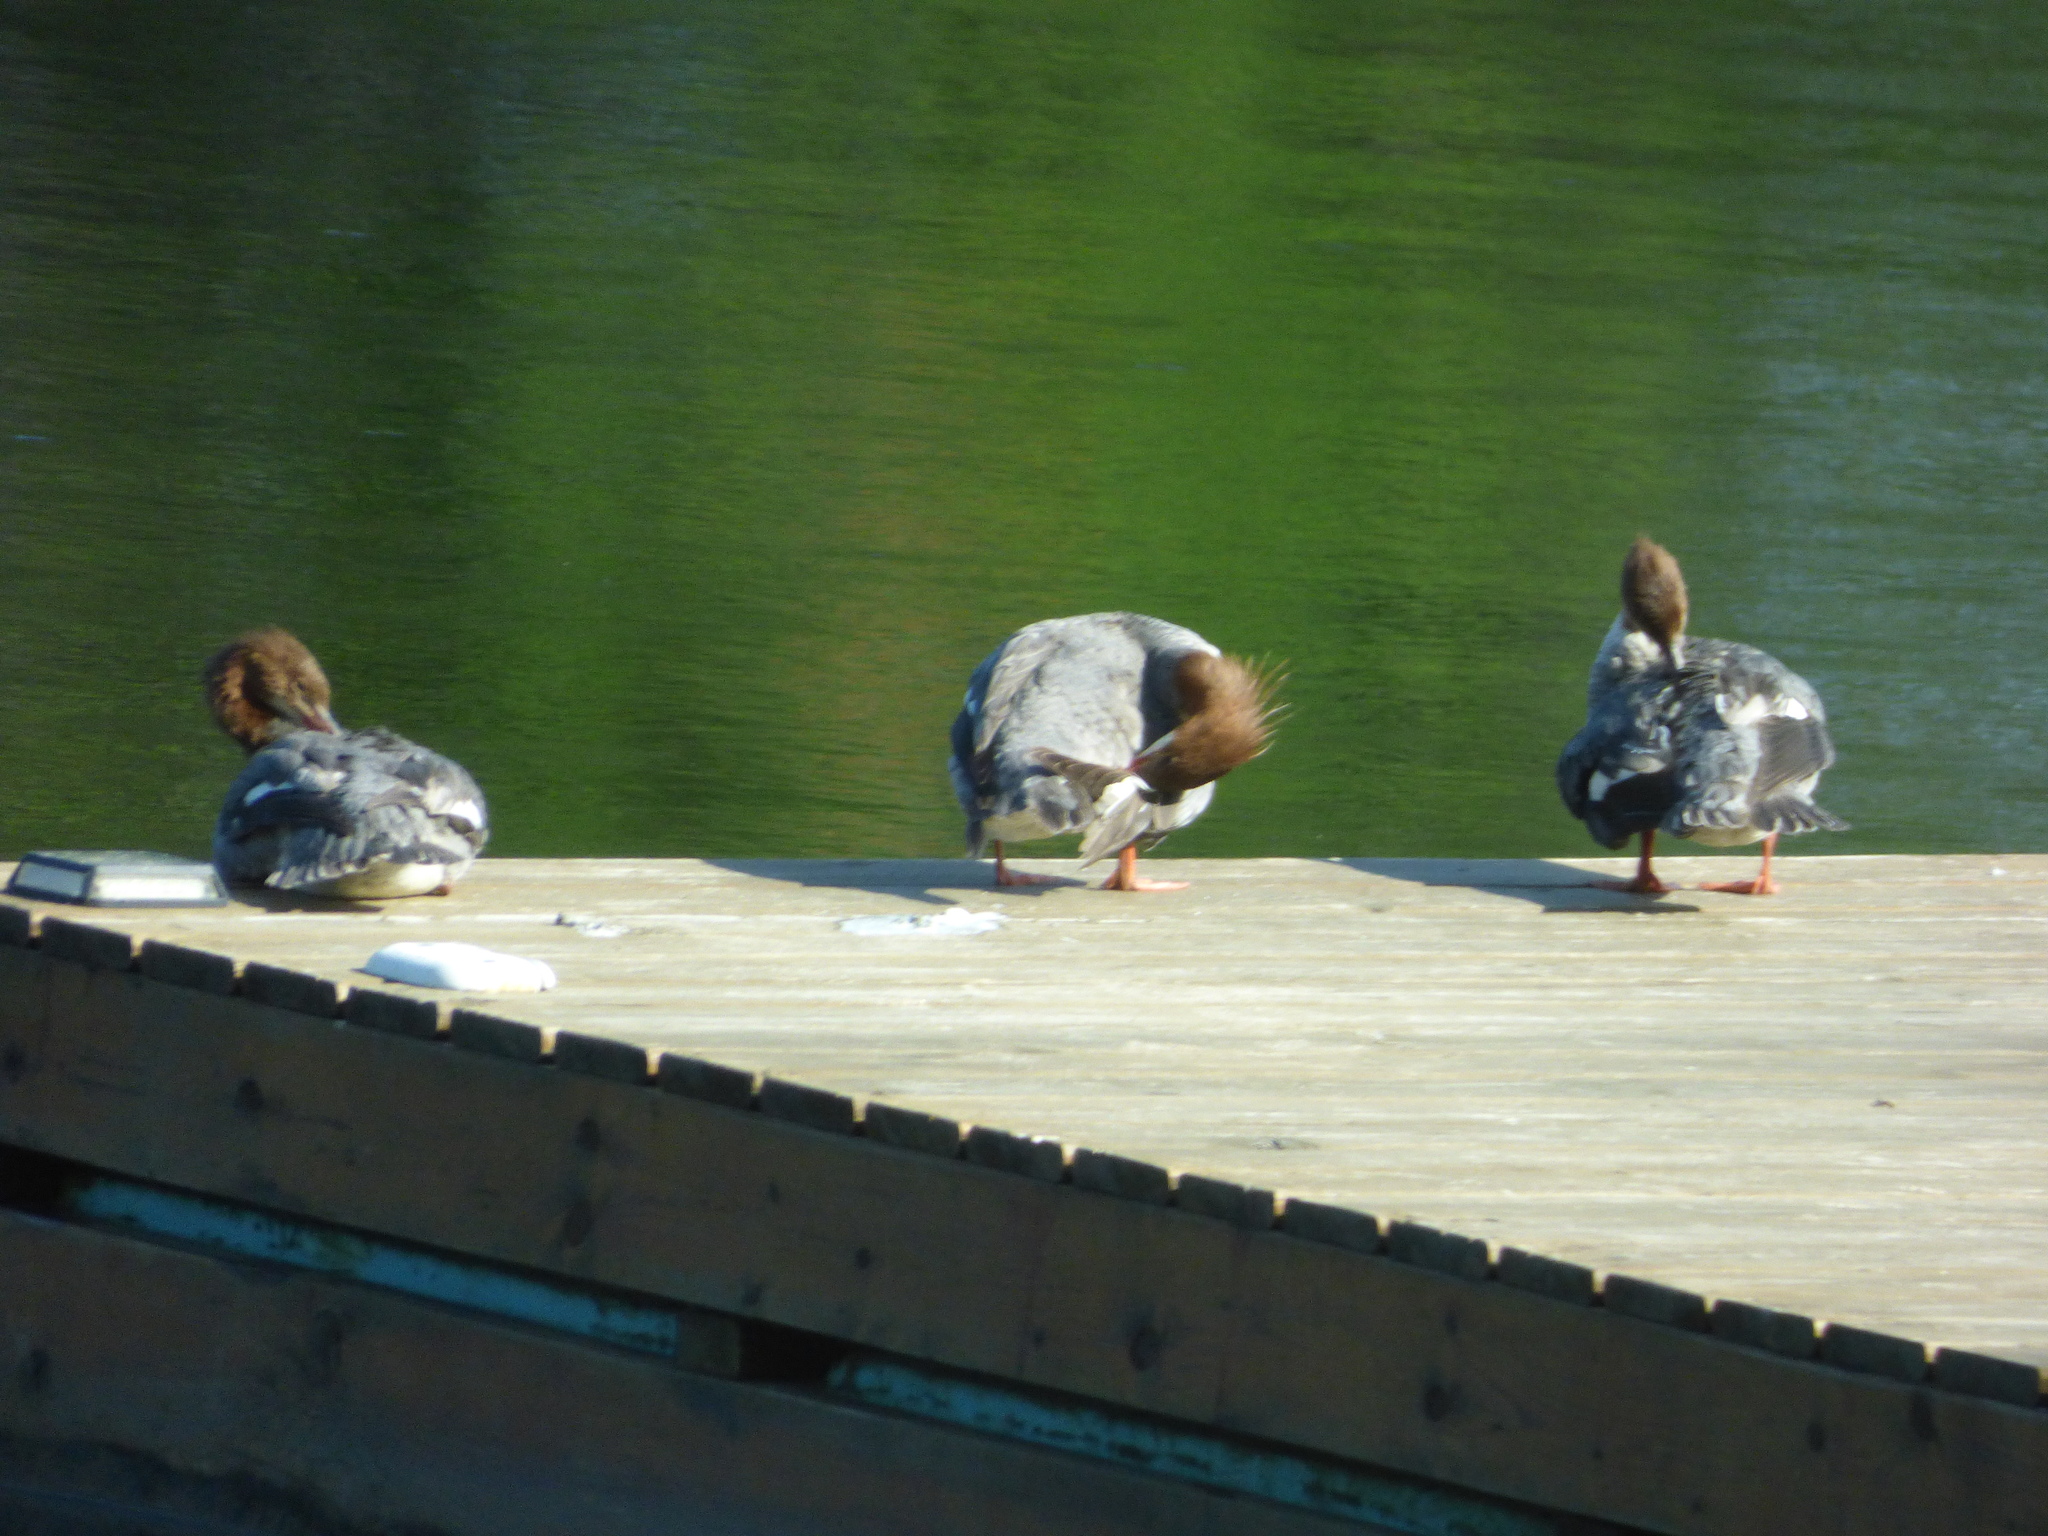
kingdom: Animalia
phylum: Chordata
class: Aves
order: Anseriformes
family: Anatidae
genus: Mergus
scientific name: Mergus merganser
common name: Common merganser
